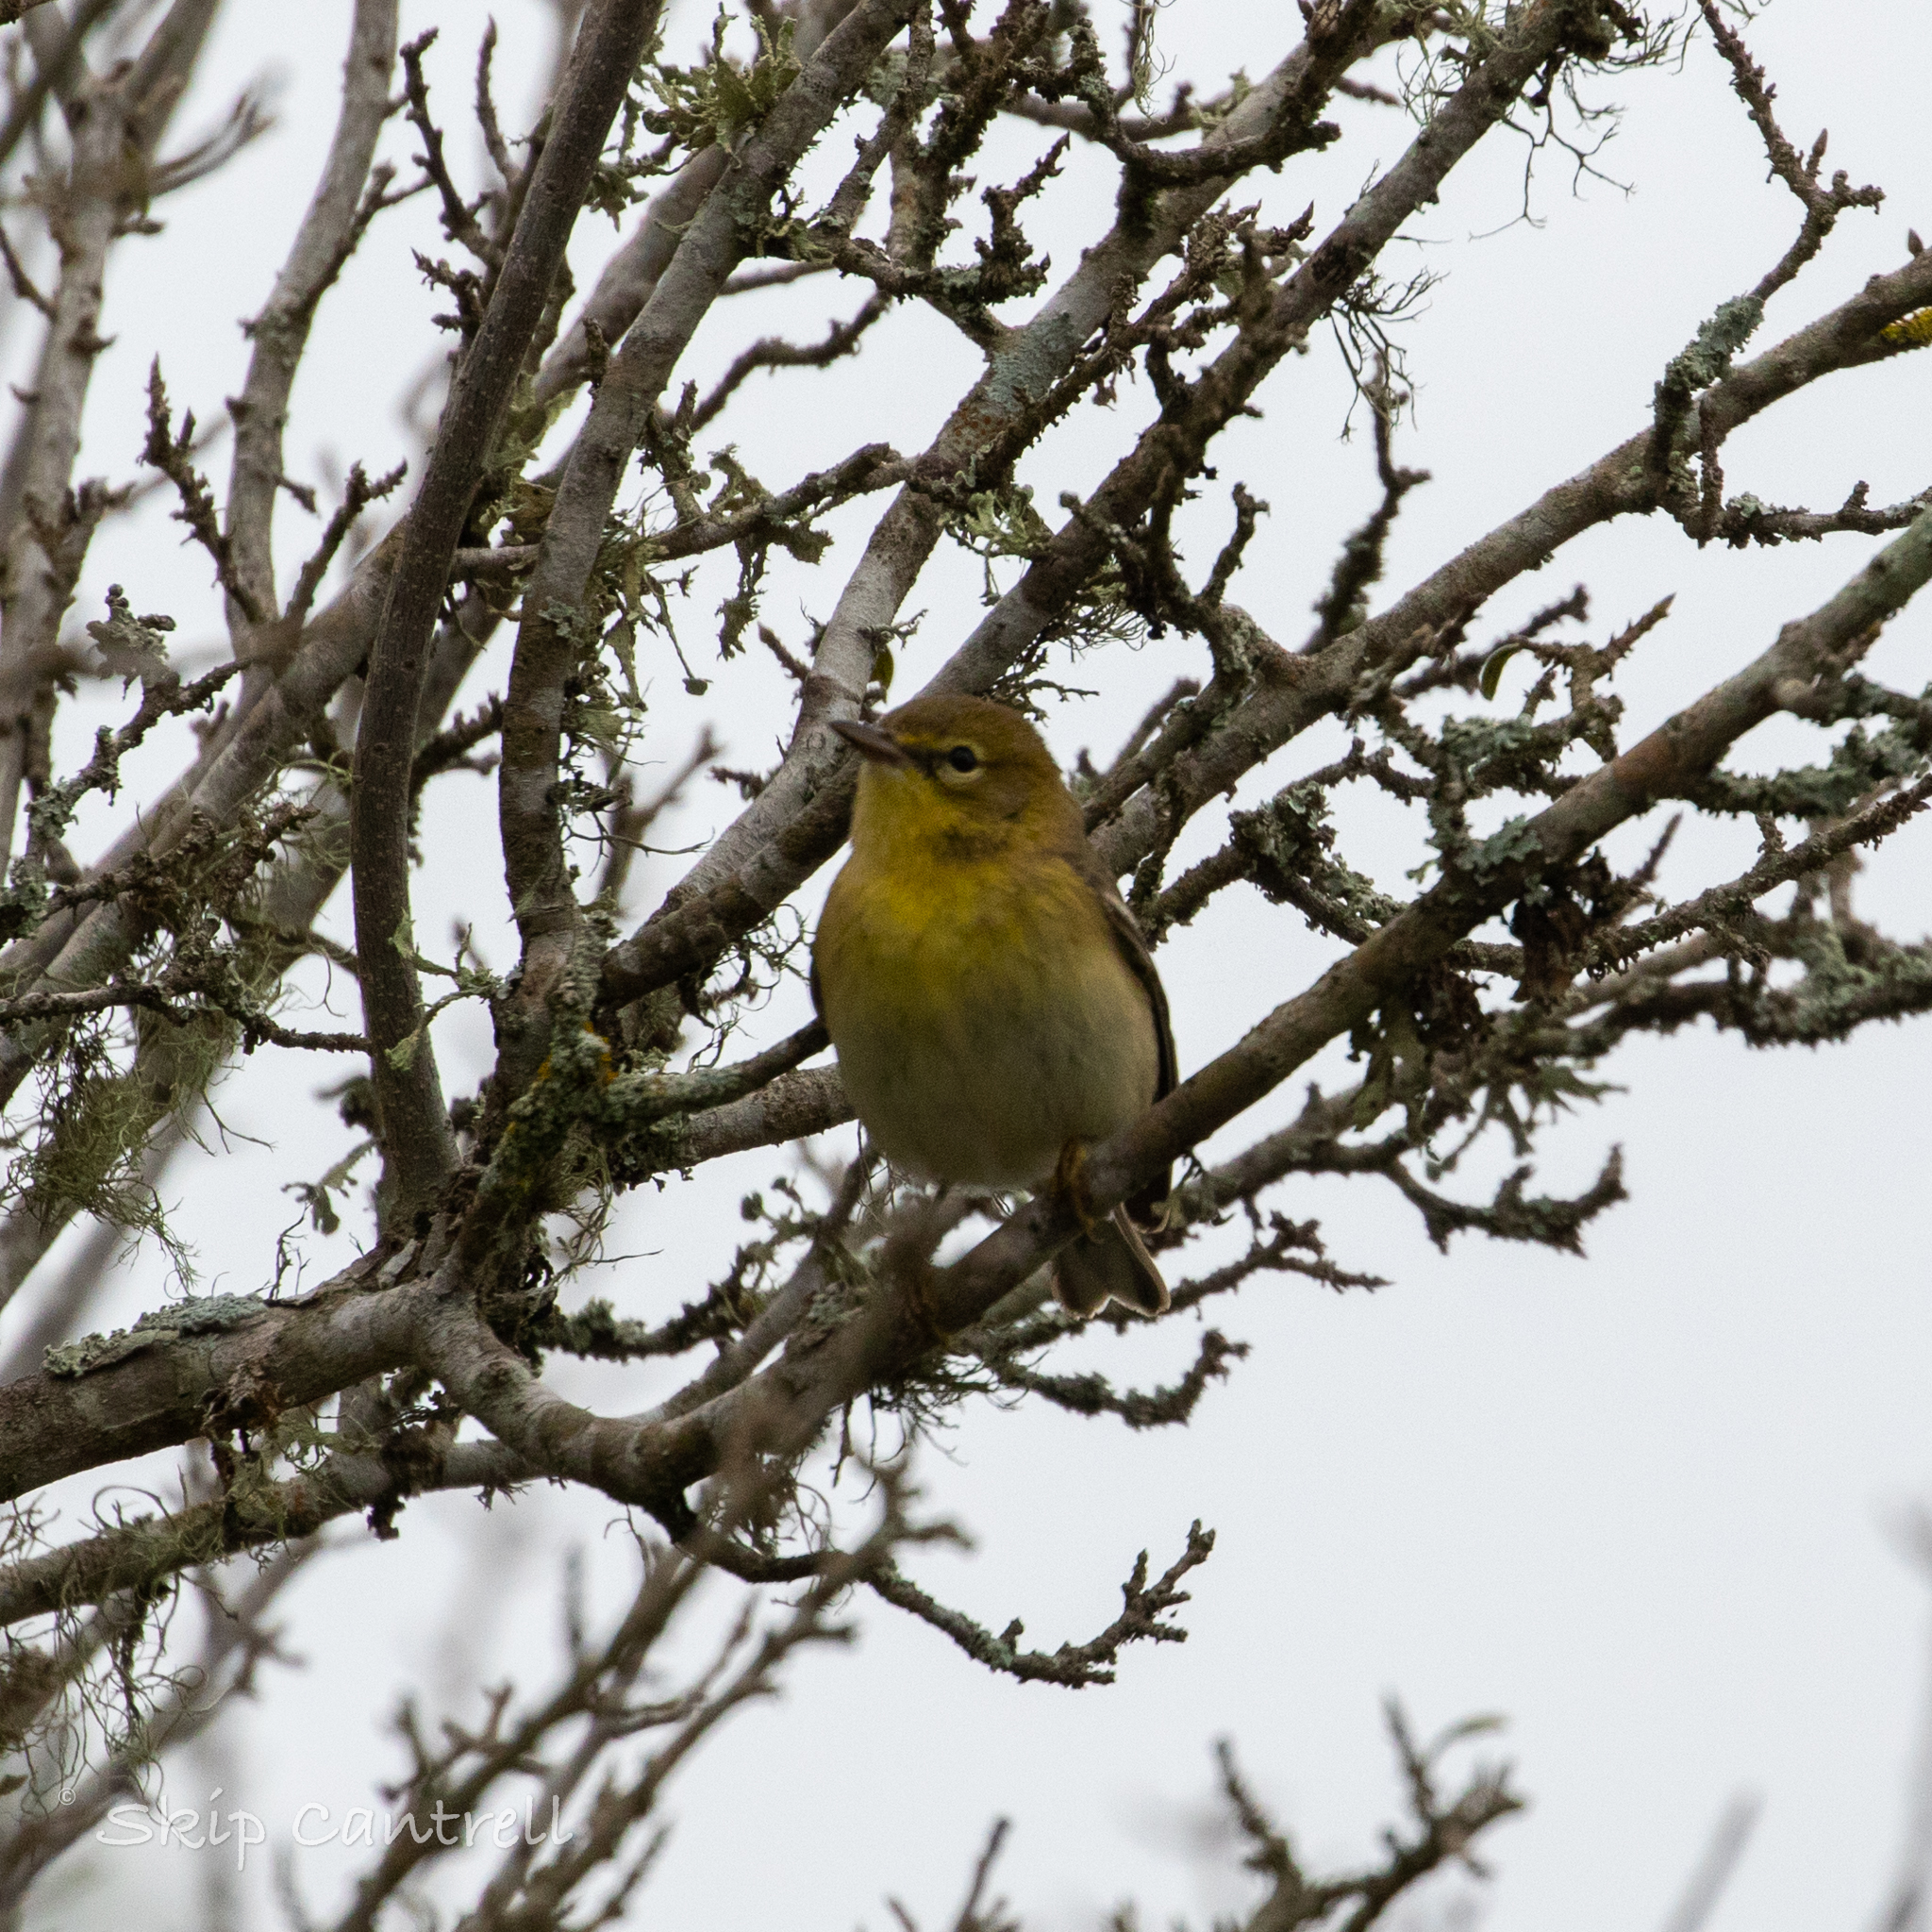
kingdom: Animalia
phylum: Chordata
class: Aves
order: Passeriformes
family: Parulidae
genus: Setophaga
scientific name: Setophaga pinus
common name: Pine warbler
